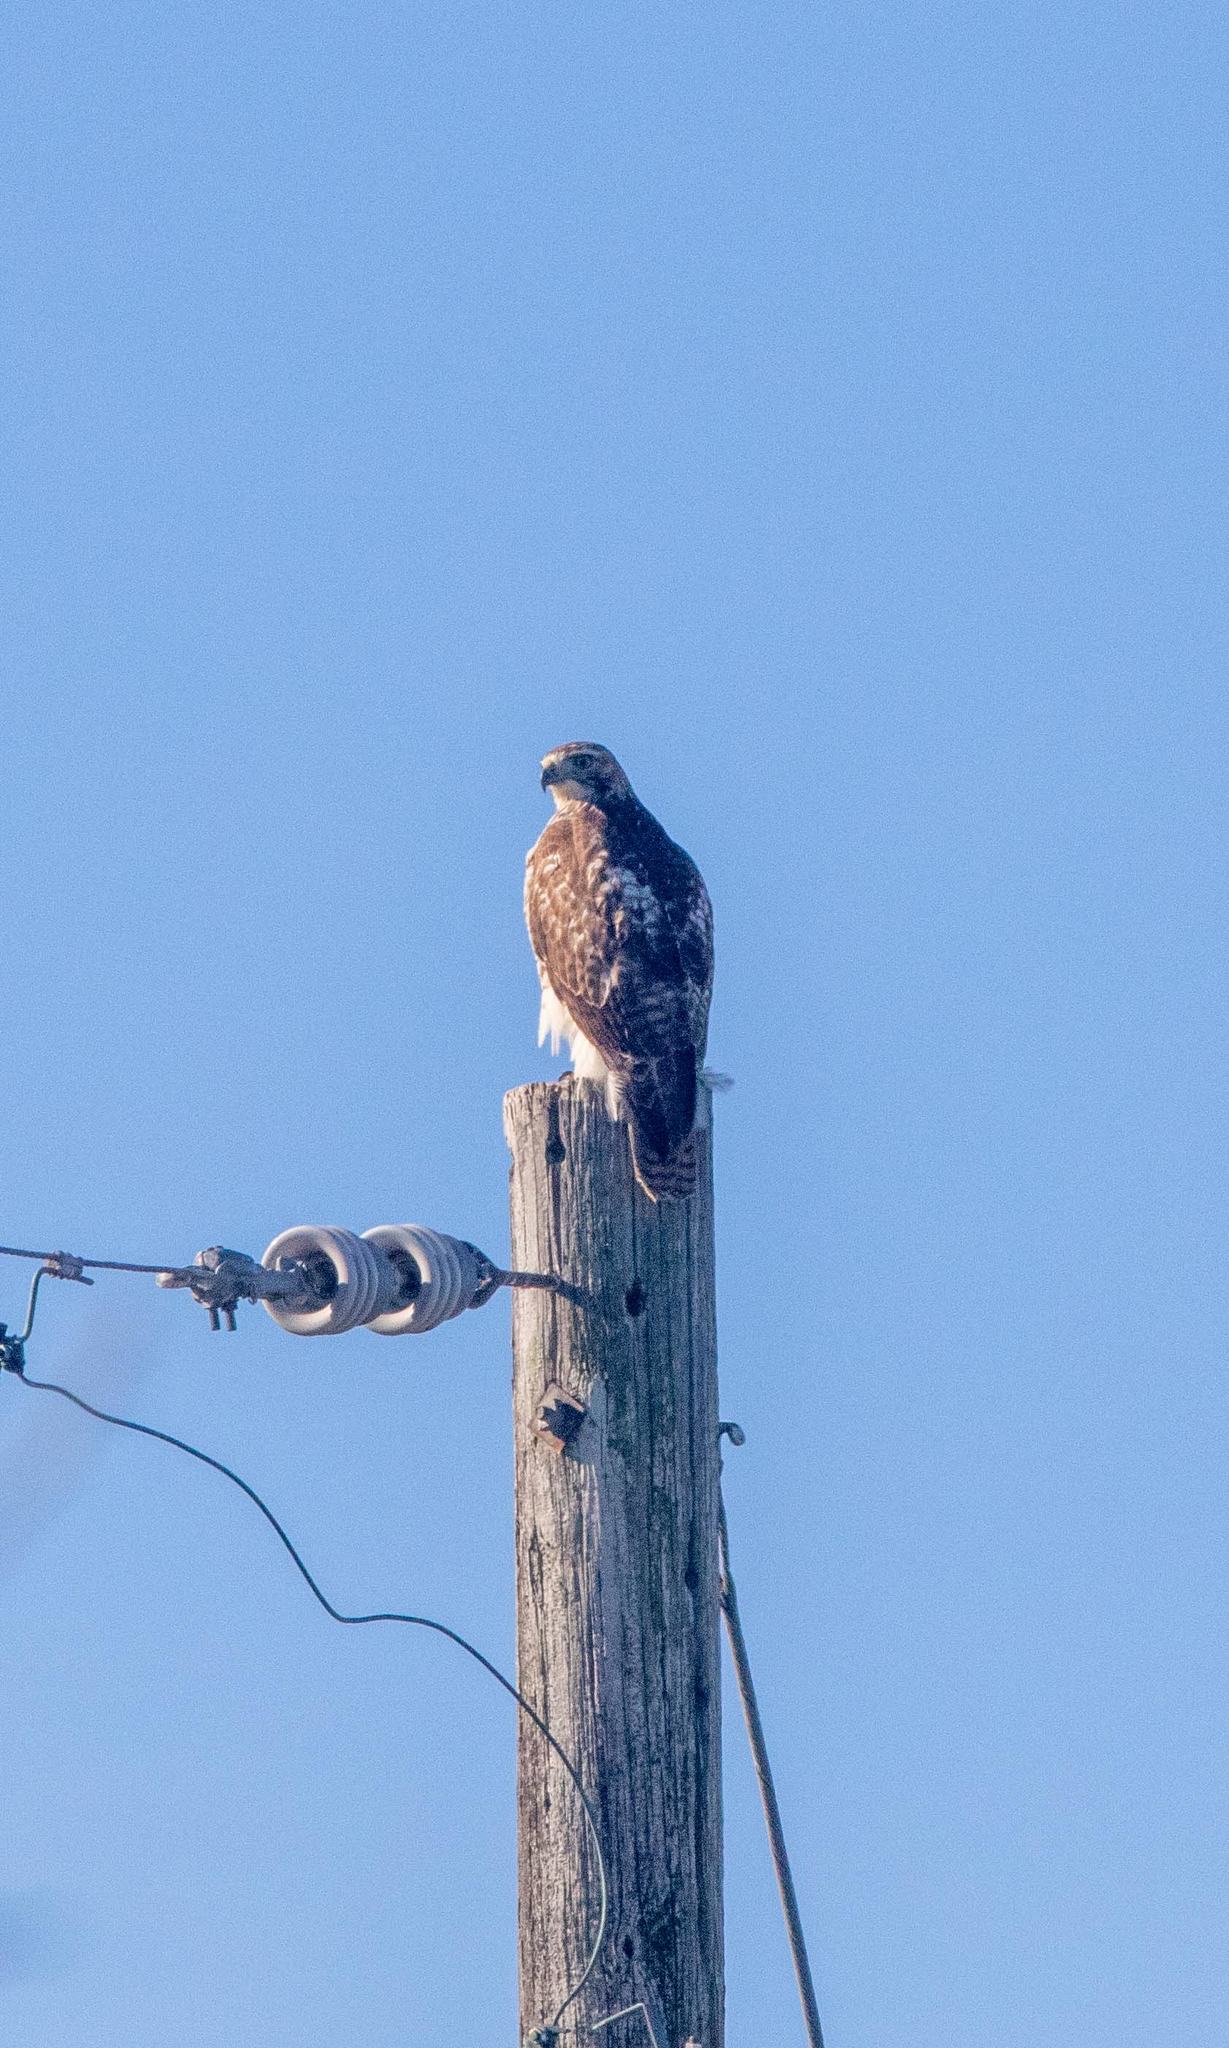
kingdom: Animalia
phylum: Chordata
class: Aves
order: Accipitriformes
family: Accipitridae
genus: Buteo
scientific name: Buteo jamaicensis
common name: Red-tailed hawk
